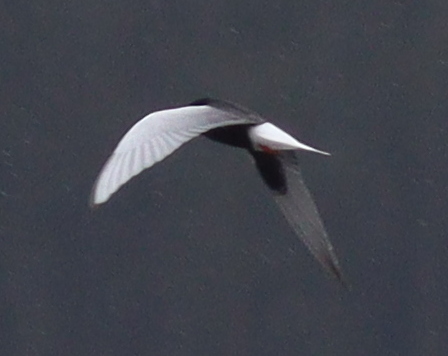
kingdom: Animalia
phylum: Chordata
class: Aves
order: Charadriiformes
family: Laridae
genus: Chlidonias
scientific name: Chlidonias leucopterus
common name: White-winged tern
